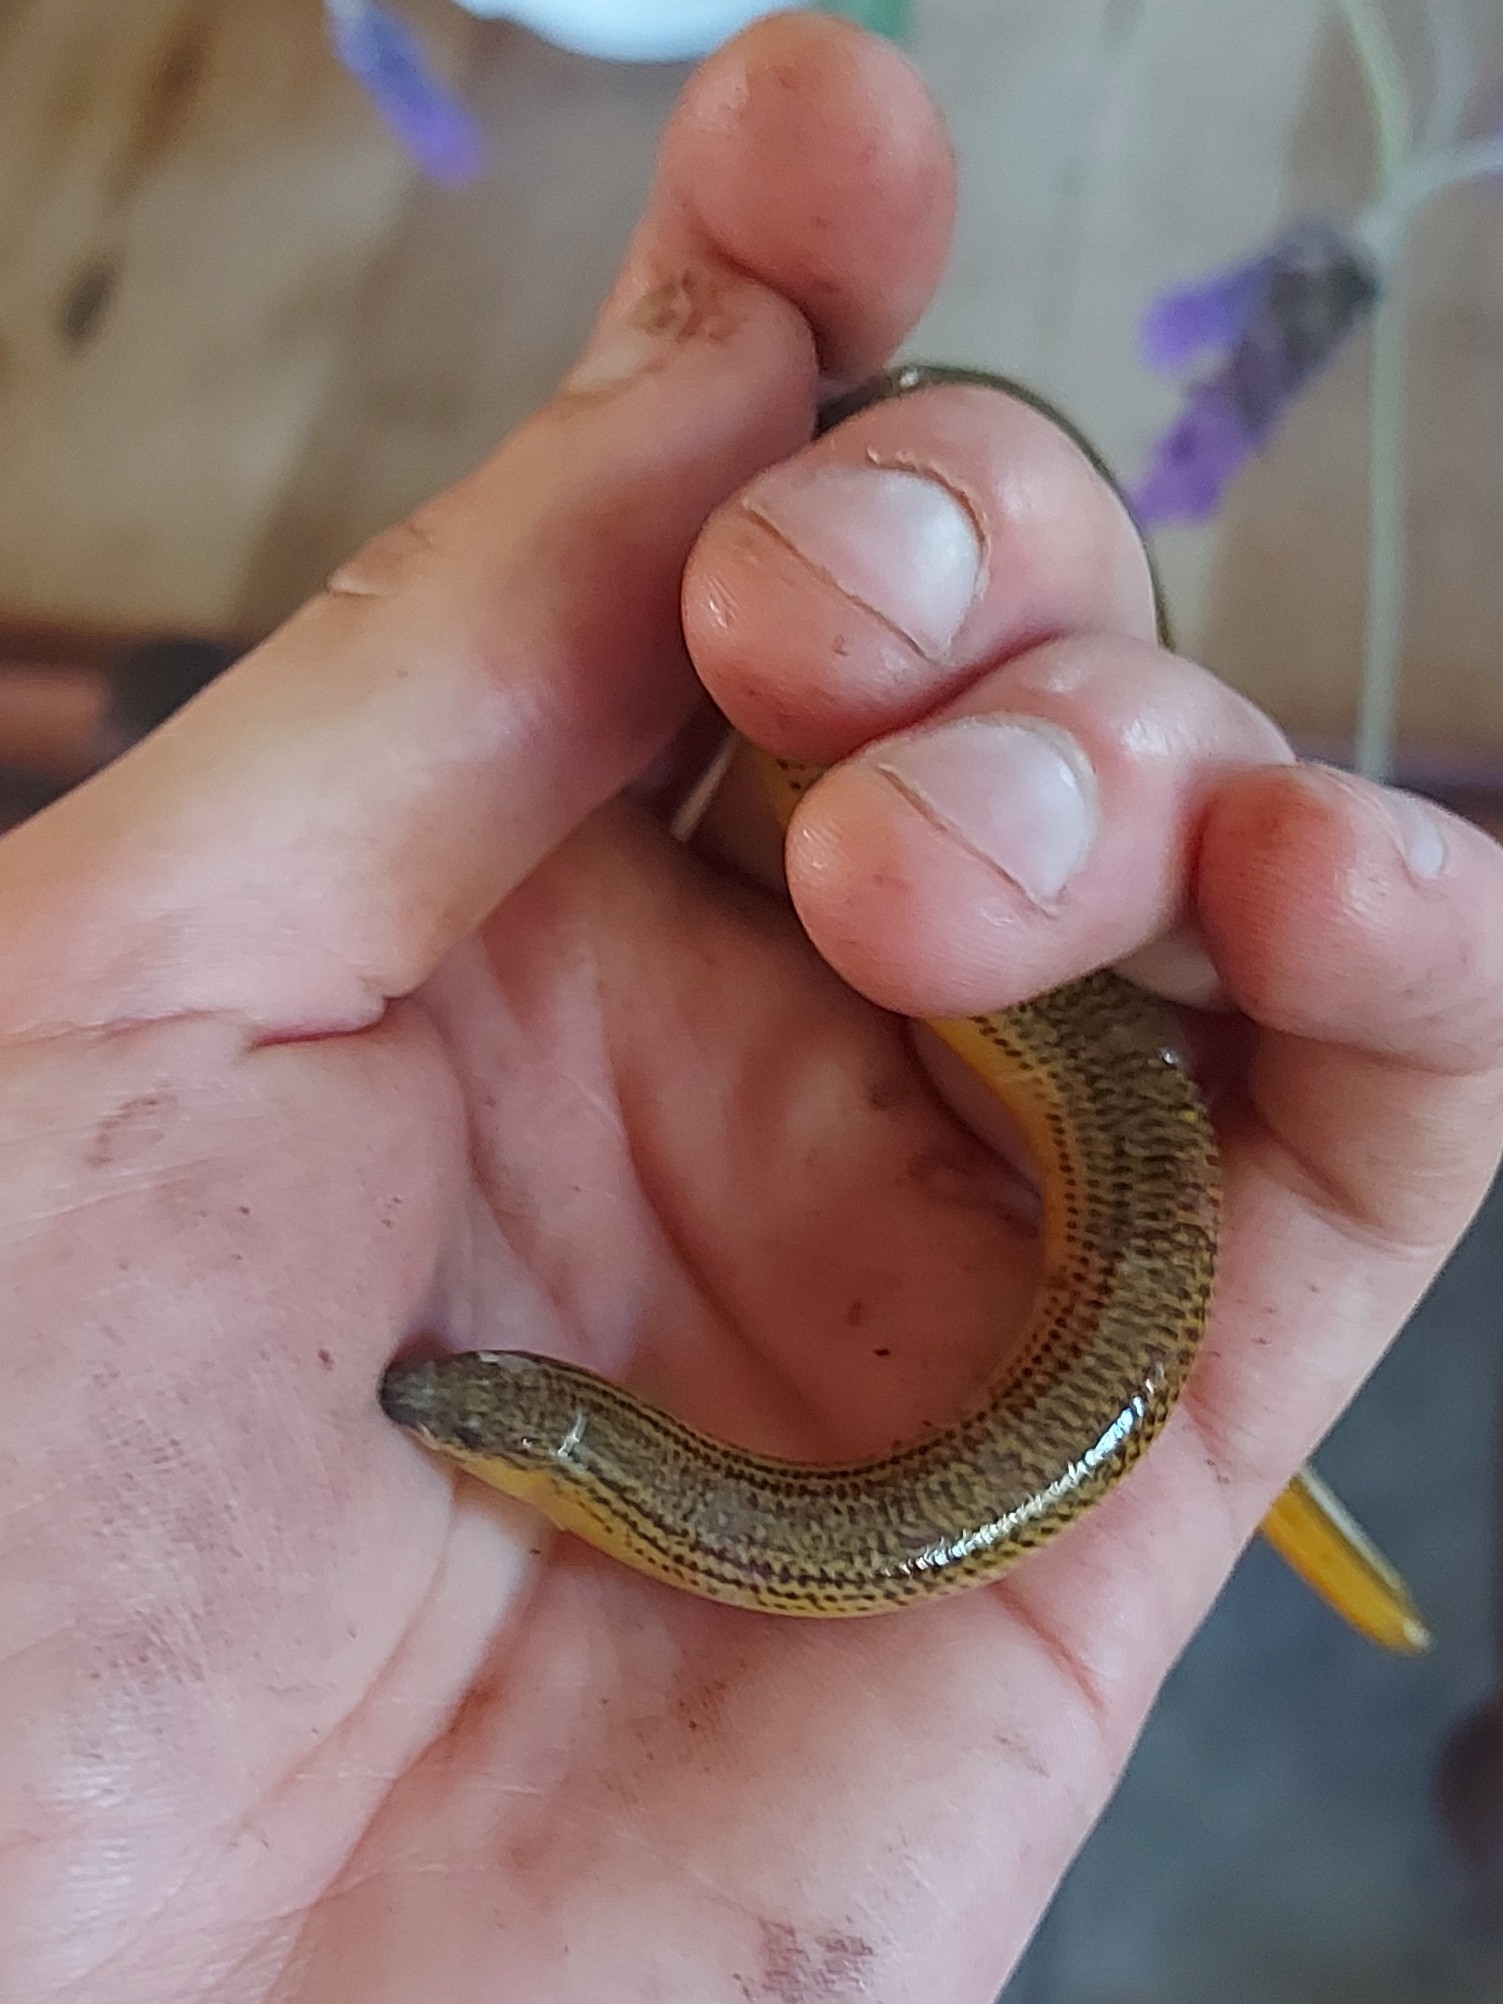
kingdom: Animalia
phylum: Chordata
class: Squamata
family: Scincidae
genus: Acontias
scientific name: Acontias meleagris
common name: Cape legless skink
